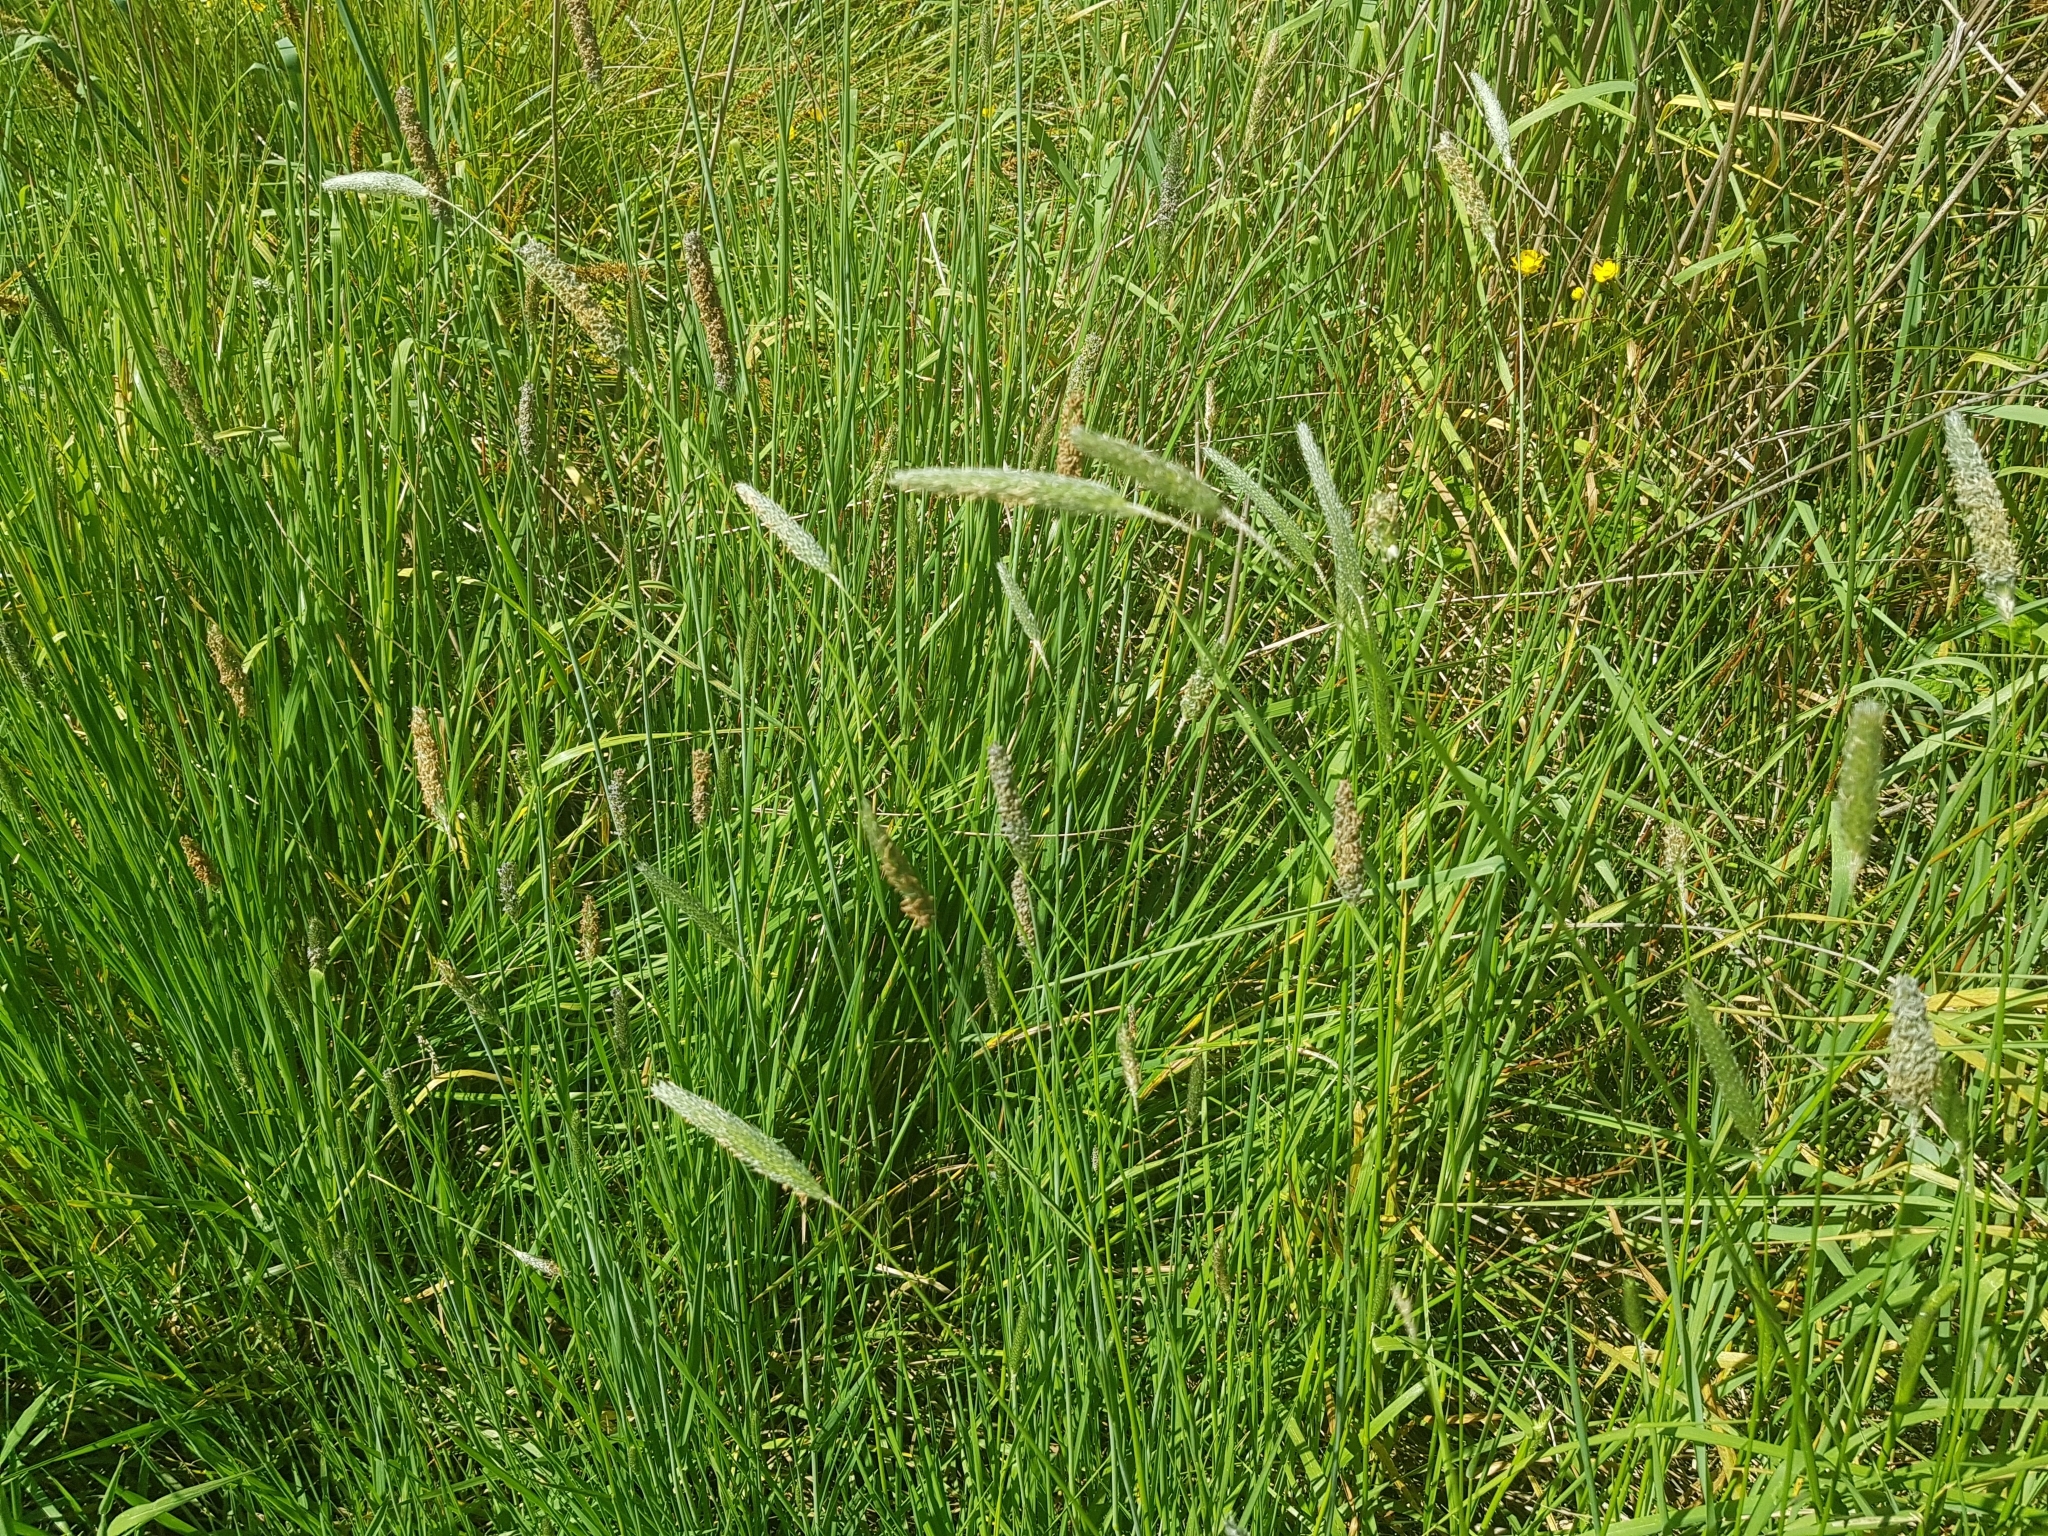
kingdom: Plantae
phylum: Tracheophyta
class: Liliopsida
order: Poales
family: Poaceae
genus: Alopecurus
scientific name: Alopecurus pratensis
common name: Meadow foxtail
